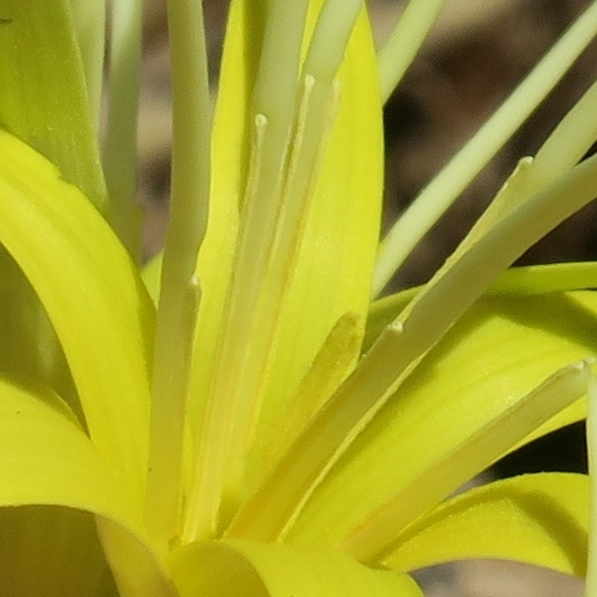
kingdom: Plantae
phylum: Tracheophyta
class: Liliopsida
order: Asparagales
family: Hypoxidaceae
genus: Empodium
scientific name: Empodium flexile
